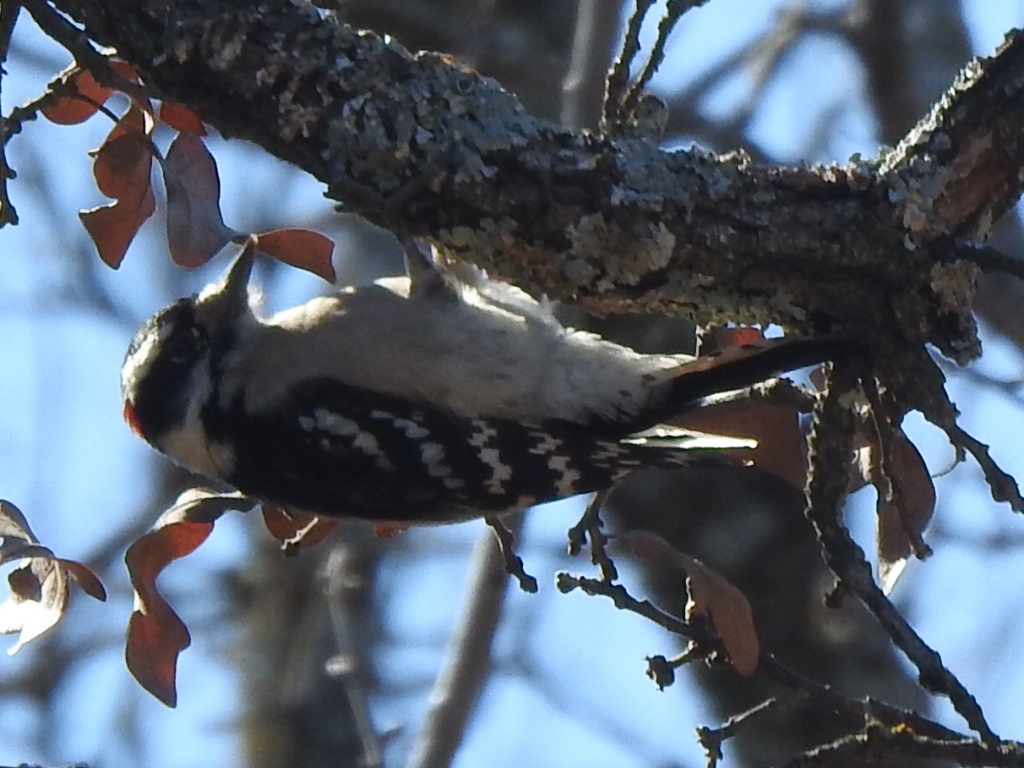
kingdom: Animalia
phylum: Chordata
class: Aves
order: Piciformes
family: Picidae
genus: Dryobates
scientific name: Dryobates pubescens
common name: Downy woodpecker
